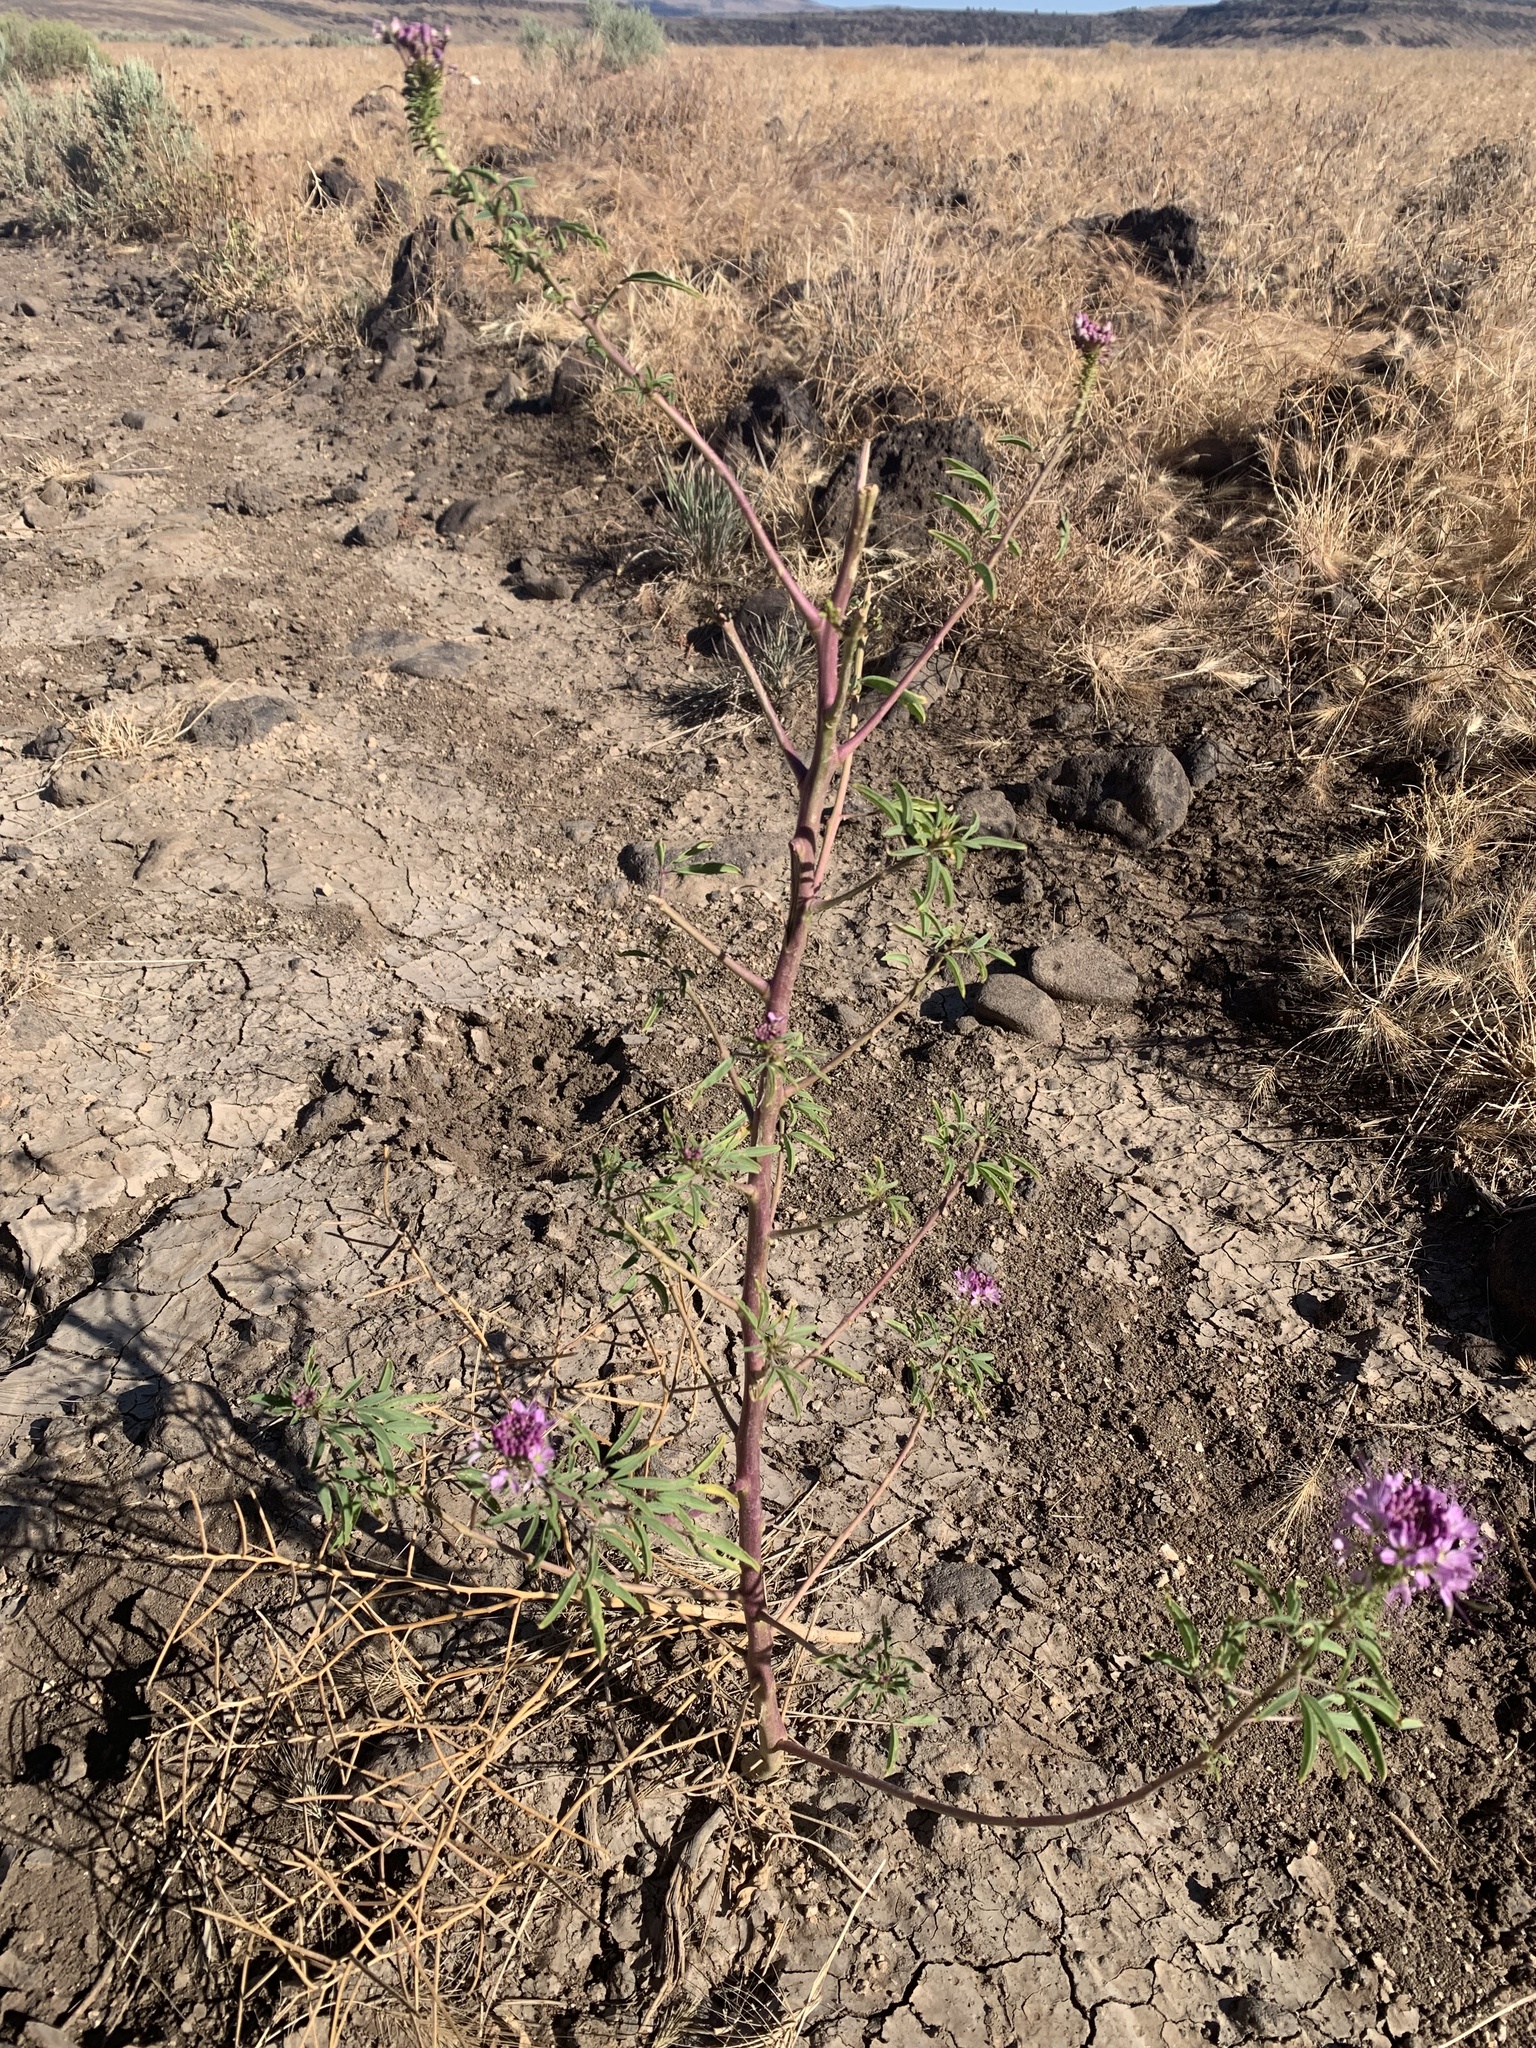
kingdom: Plantae
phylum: Tracheophyta
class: Magnoliopsida
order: Brassicales
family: Cleomaceae
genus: Cleomella
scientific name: Cleomella serrulata
